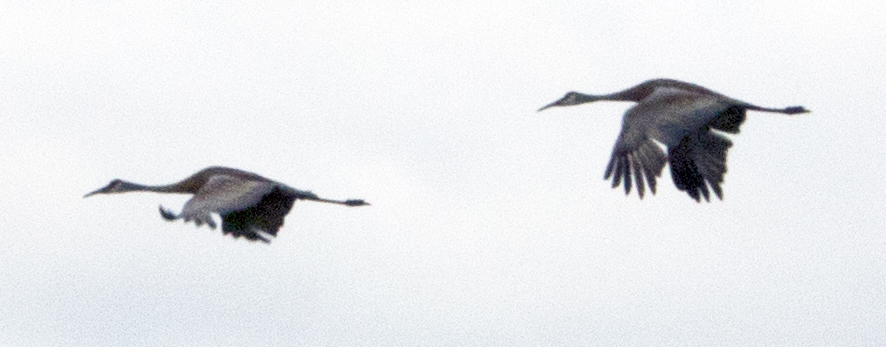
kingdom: Animalia
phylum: Chordata
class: Aves
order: Gruiformes
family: Gruidae
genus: Grus
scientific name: Grus canadensis
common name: Sandhill crane
